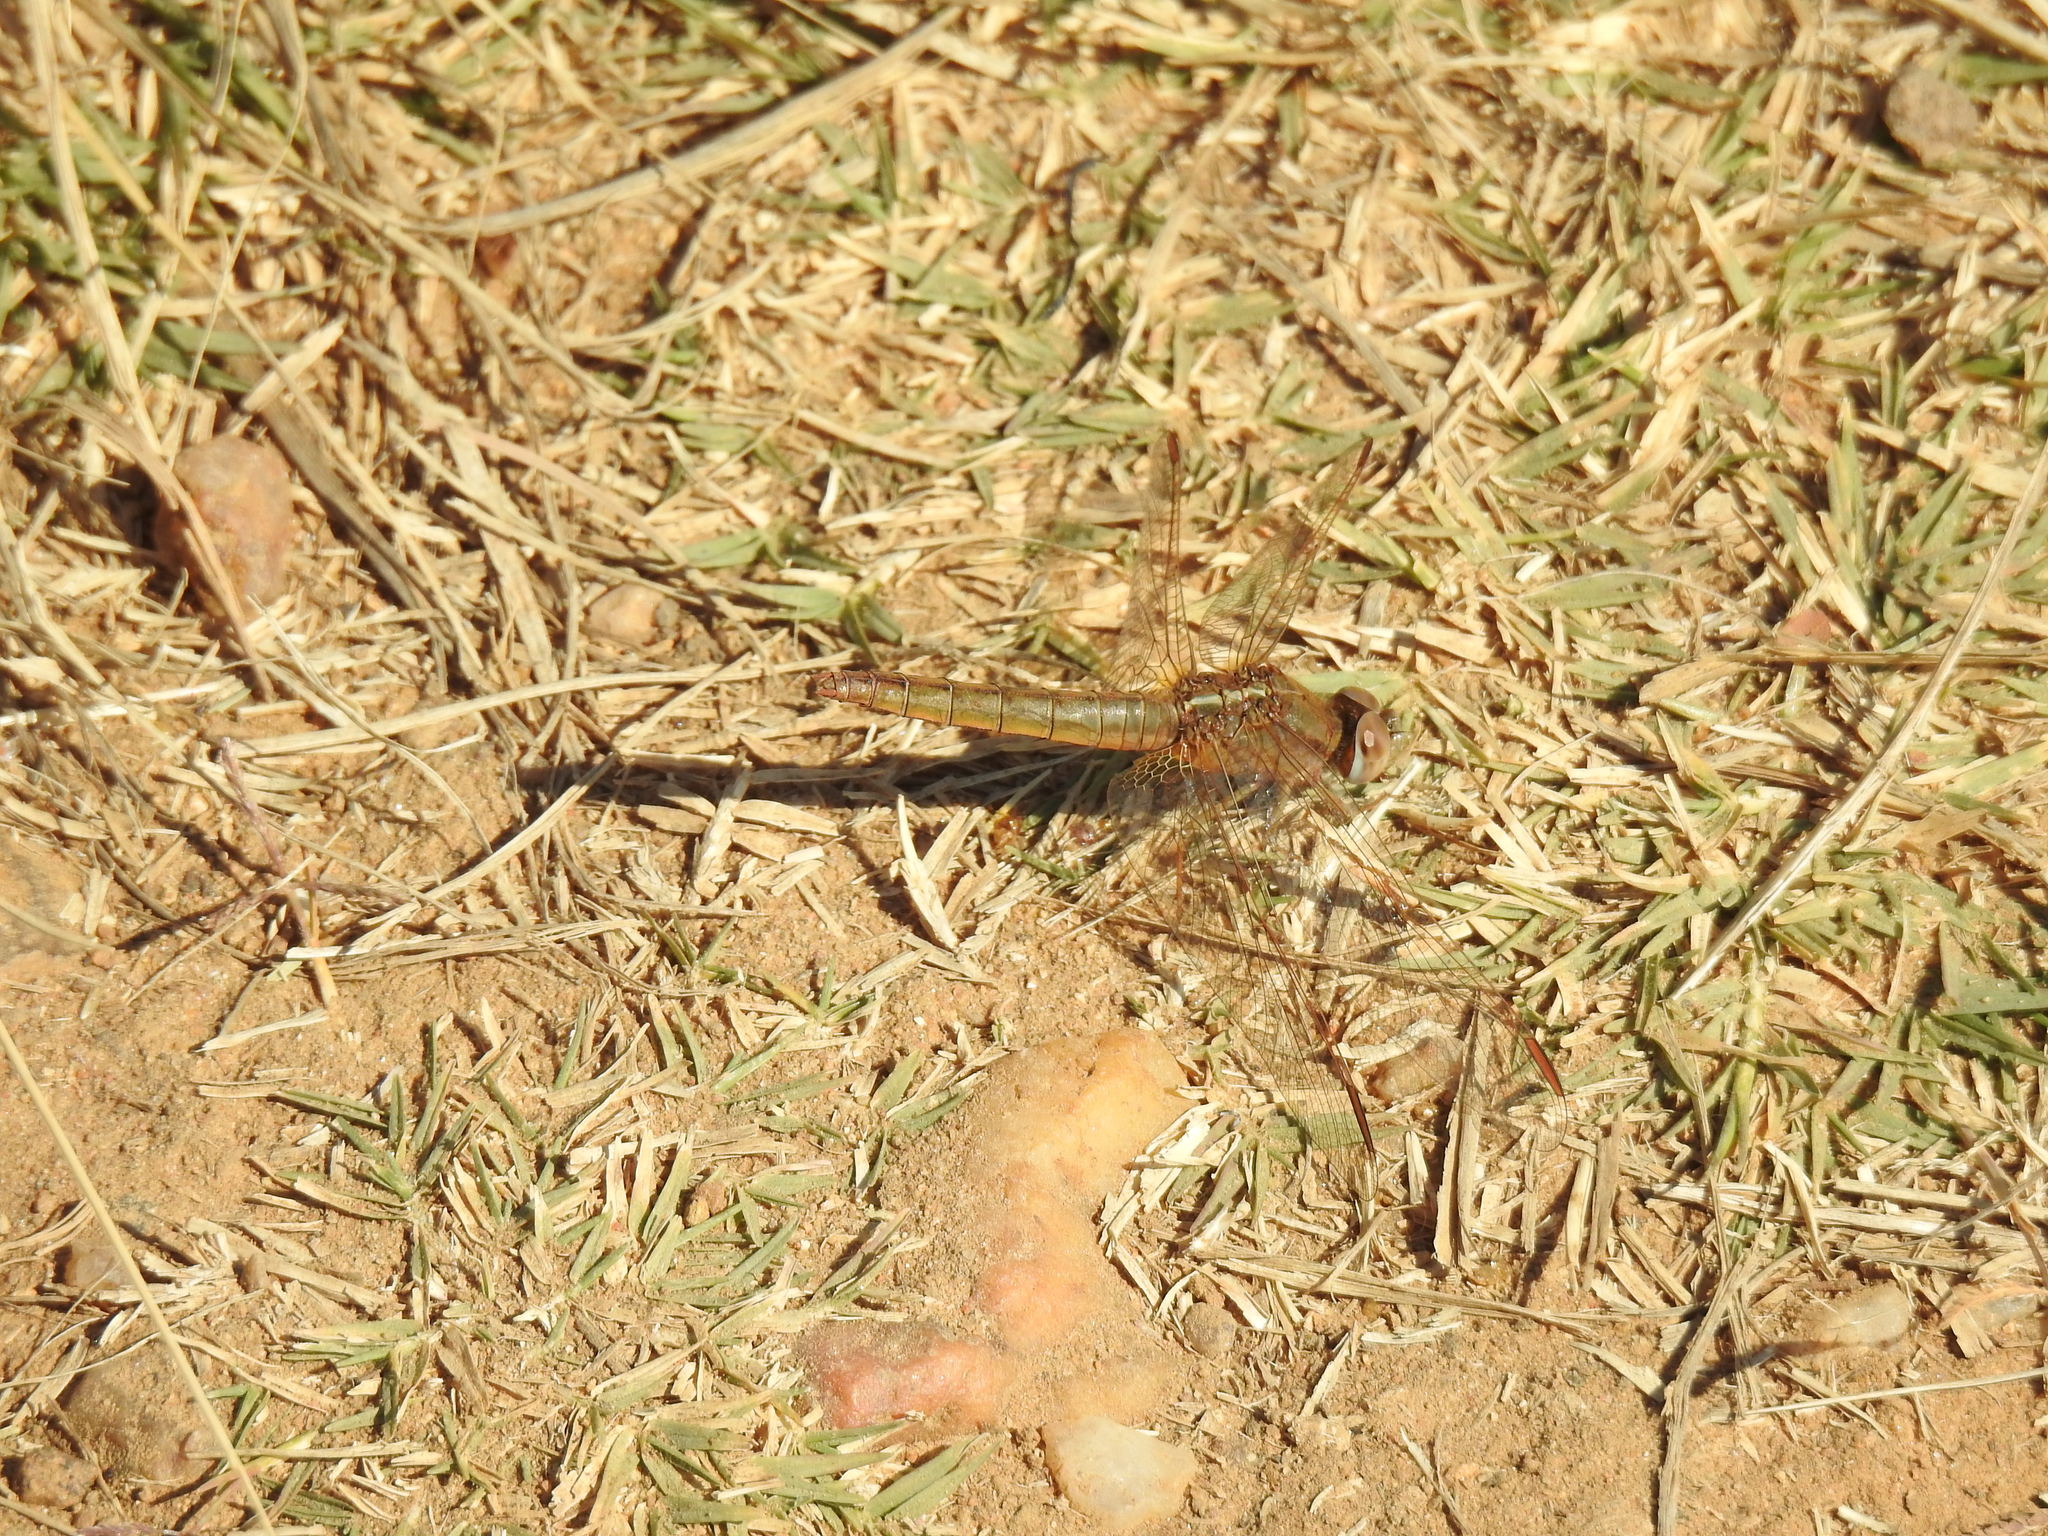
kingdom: Animalia
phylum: Arthropoda
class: Insecta
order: Odonata
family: Libellulidae
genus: Crocothemis
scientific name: Crocothemis erythraea
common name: Scarlet dragonfly
